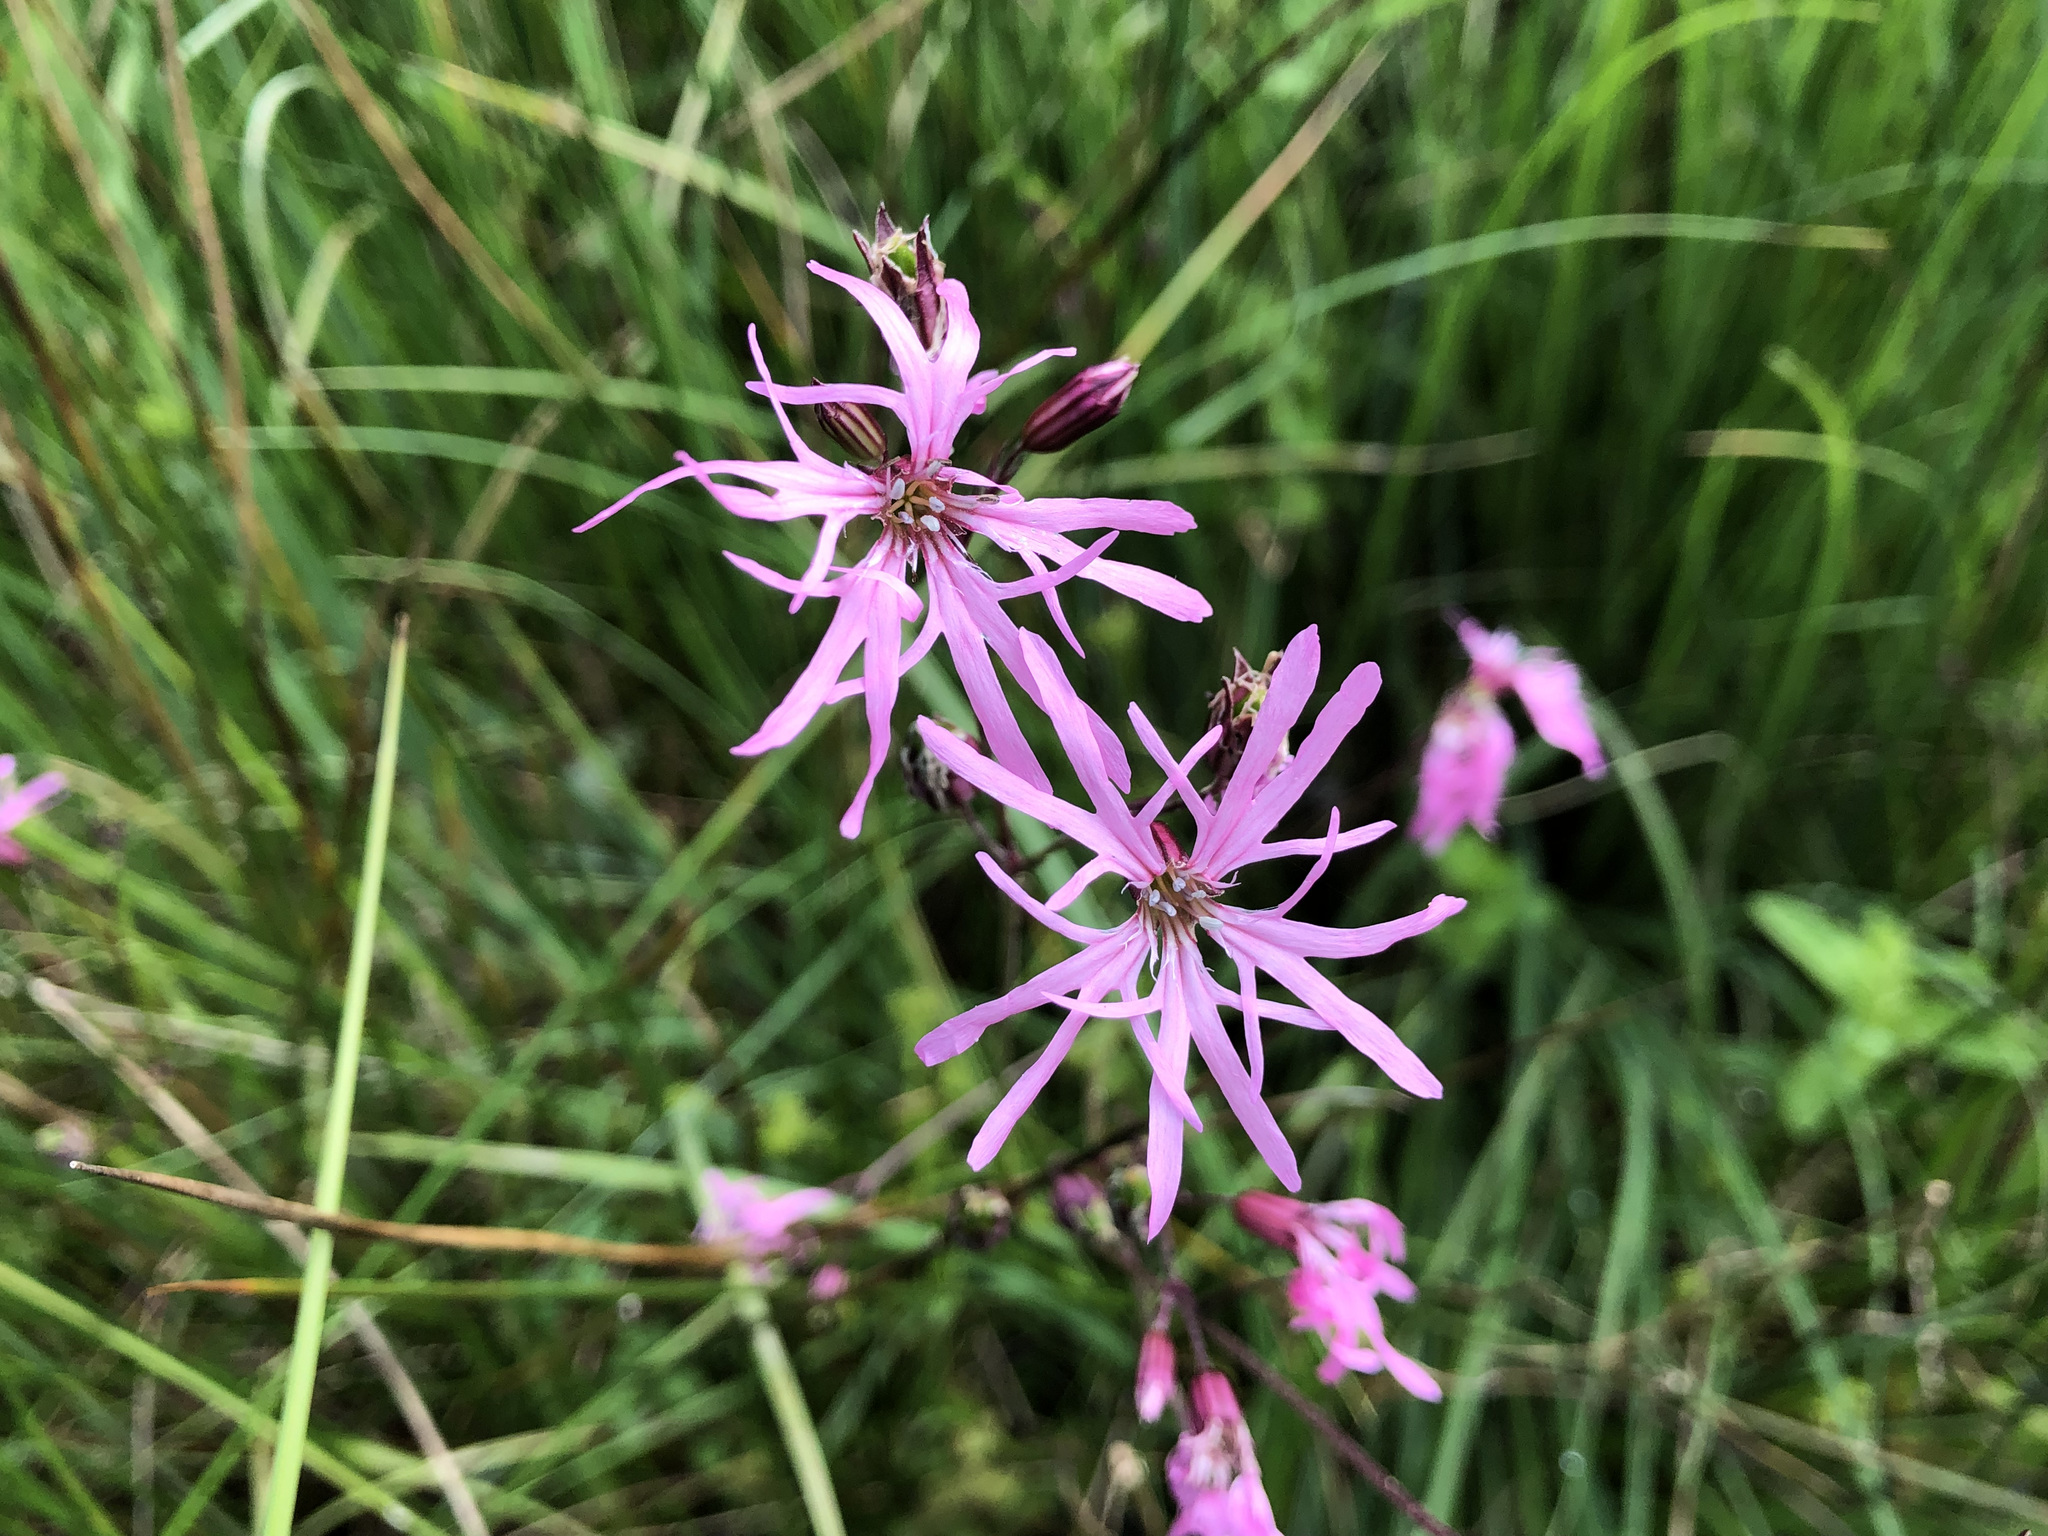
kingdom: Plantae
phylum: Tracheophyta
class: Magnoliopsida
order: Caryophyllales
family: Caryophyllaceae
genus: Silene
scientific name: Silene flos-cuculi
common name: Ragged-robin
